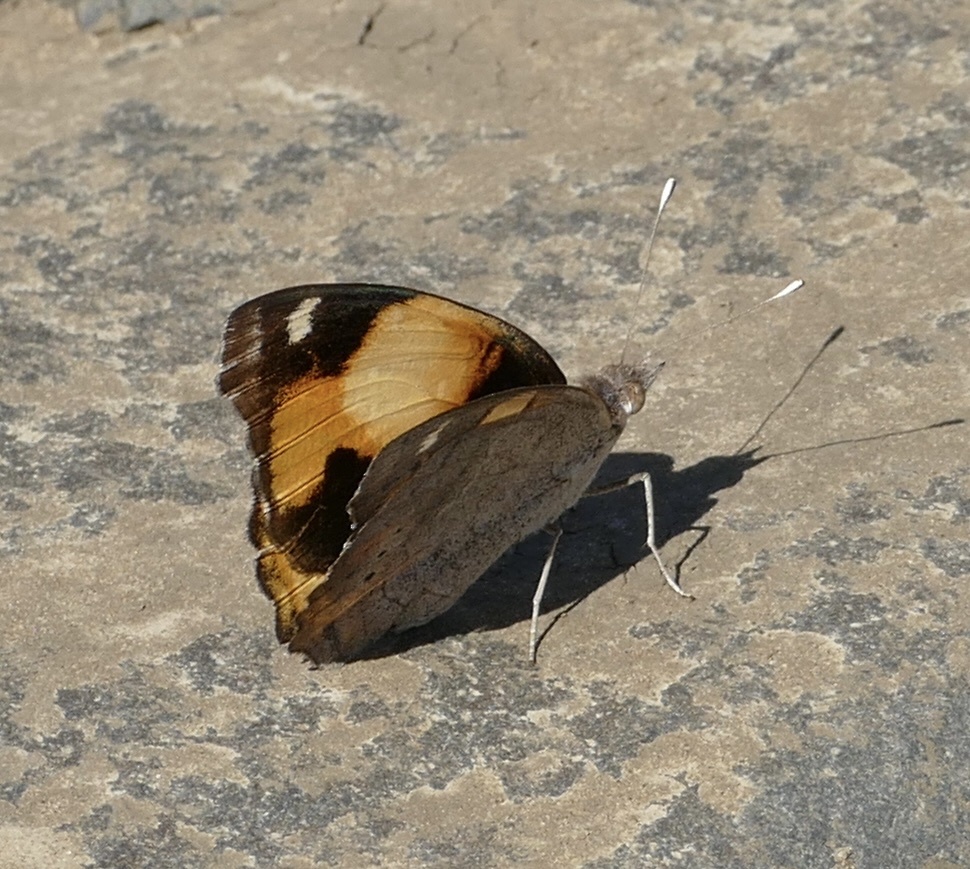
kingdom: Animalia
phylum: Arthropoda
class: Insecta
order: Lepidoptera
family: Nymphalidae
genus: Junonia
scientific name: Junonia hierta
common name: Yellow pansy
